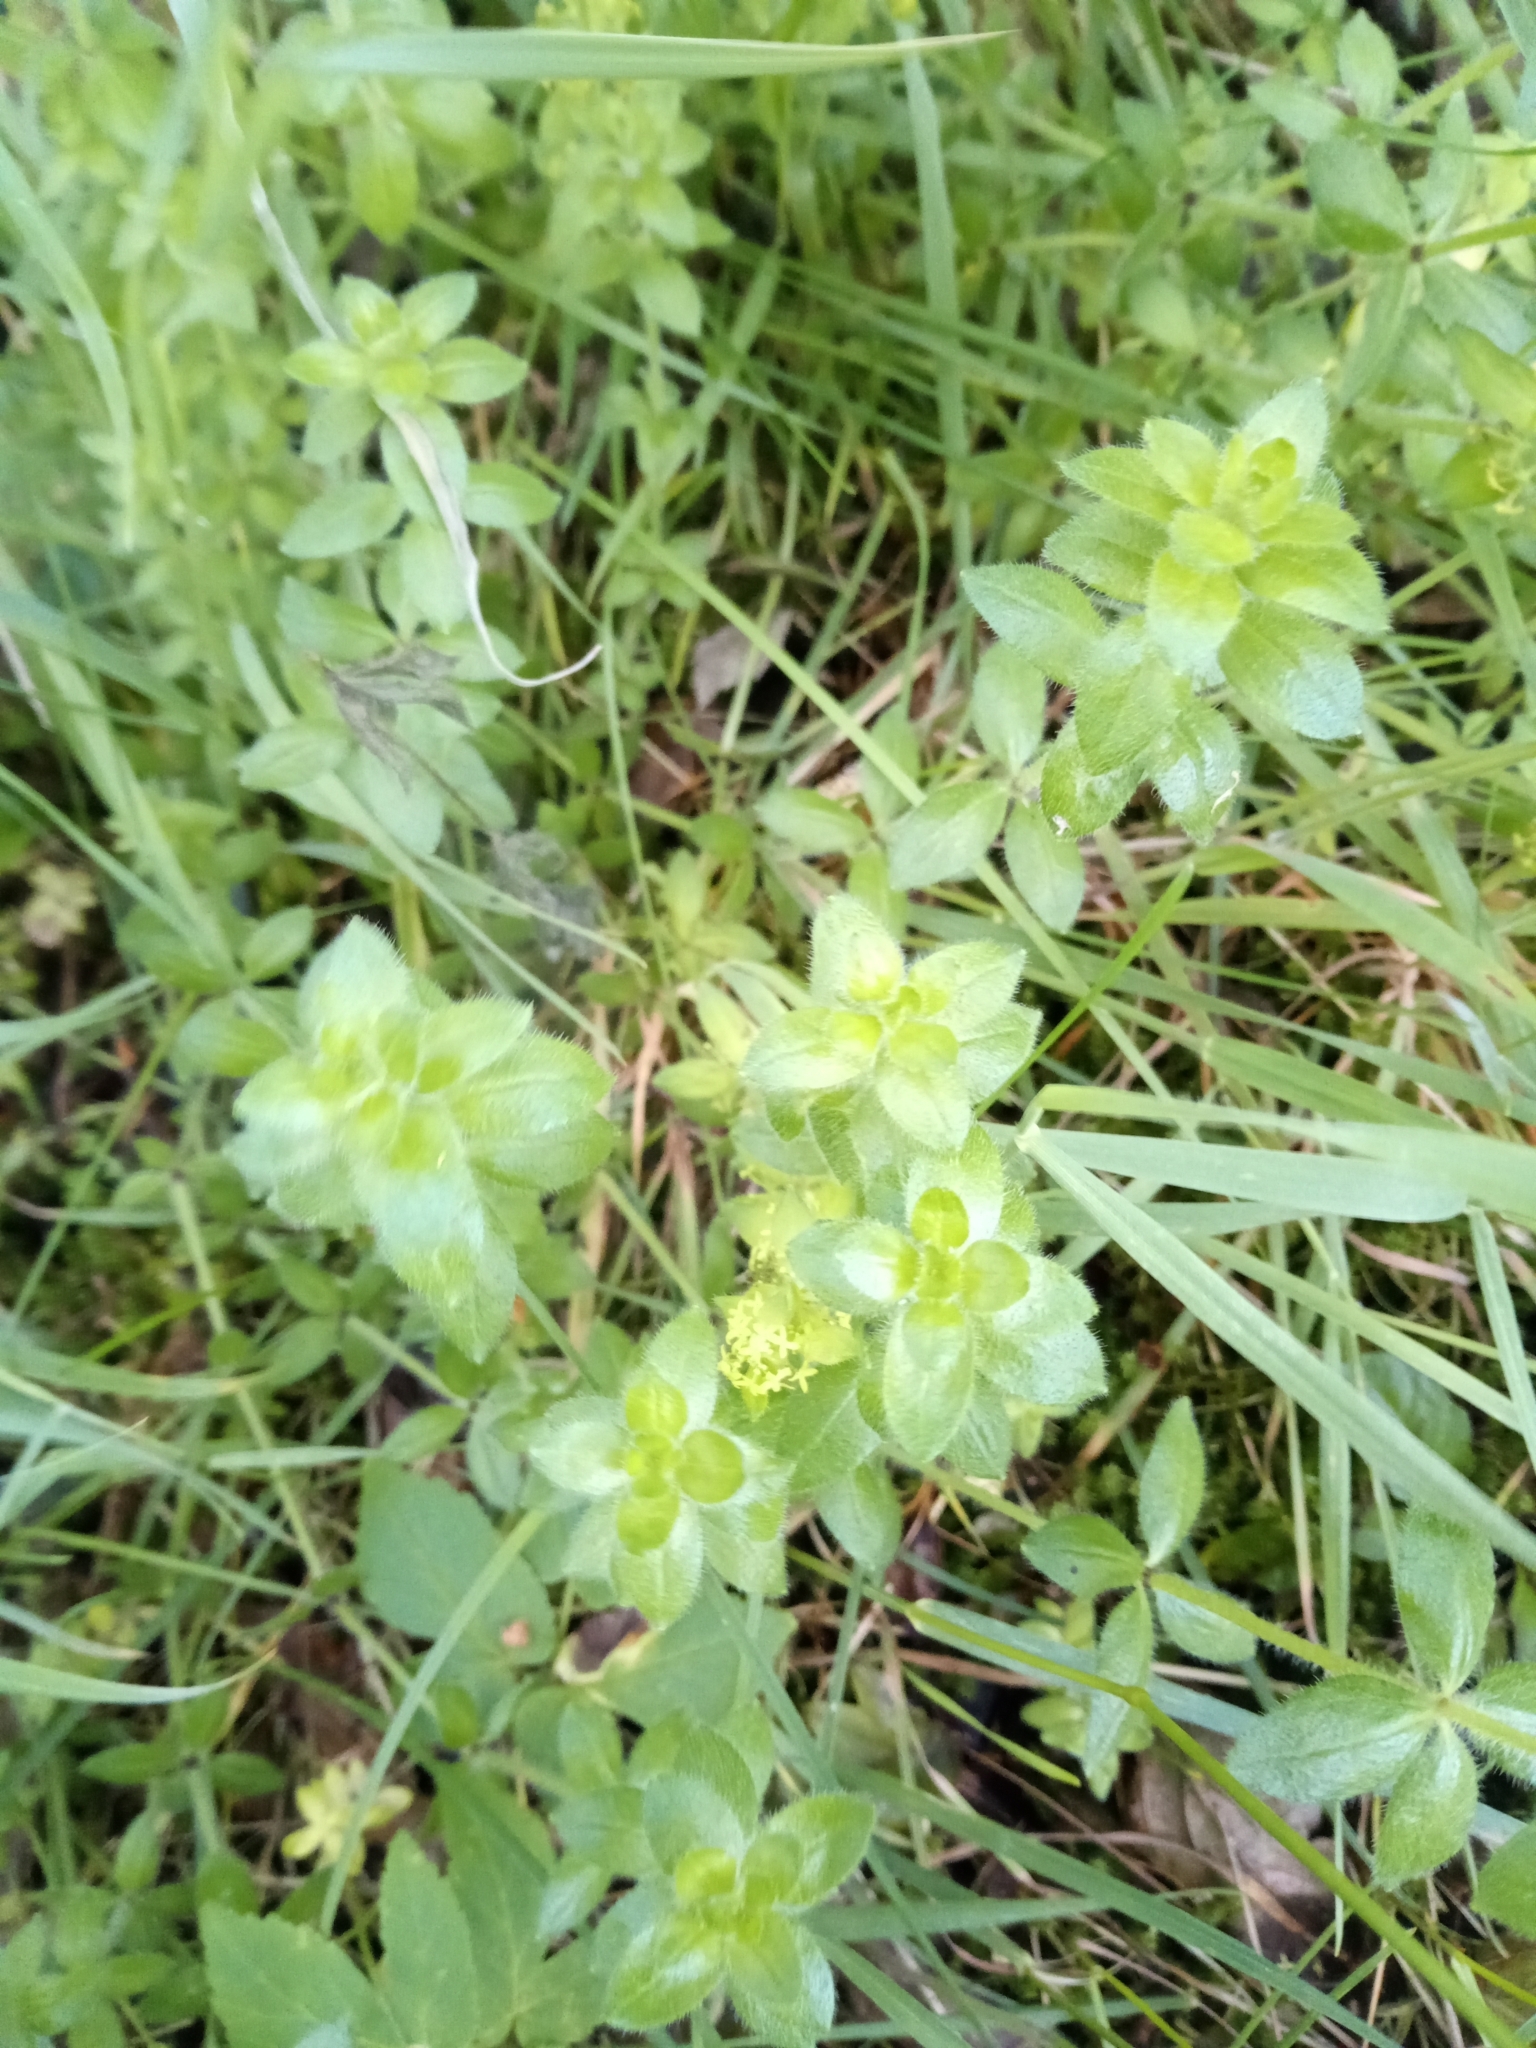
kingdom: Plantae
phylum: Tracheophyta
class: Magnoliopsida
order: Gentianales
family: Rubiaceae
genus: Cruciata
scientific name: Cruciata laevipes
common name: Crosswort
